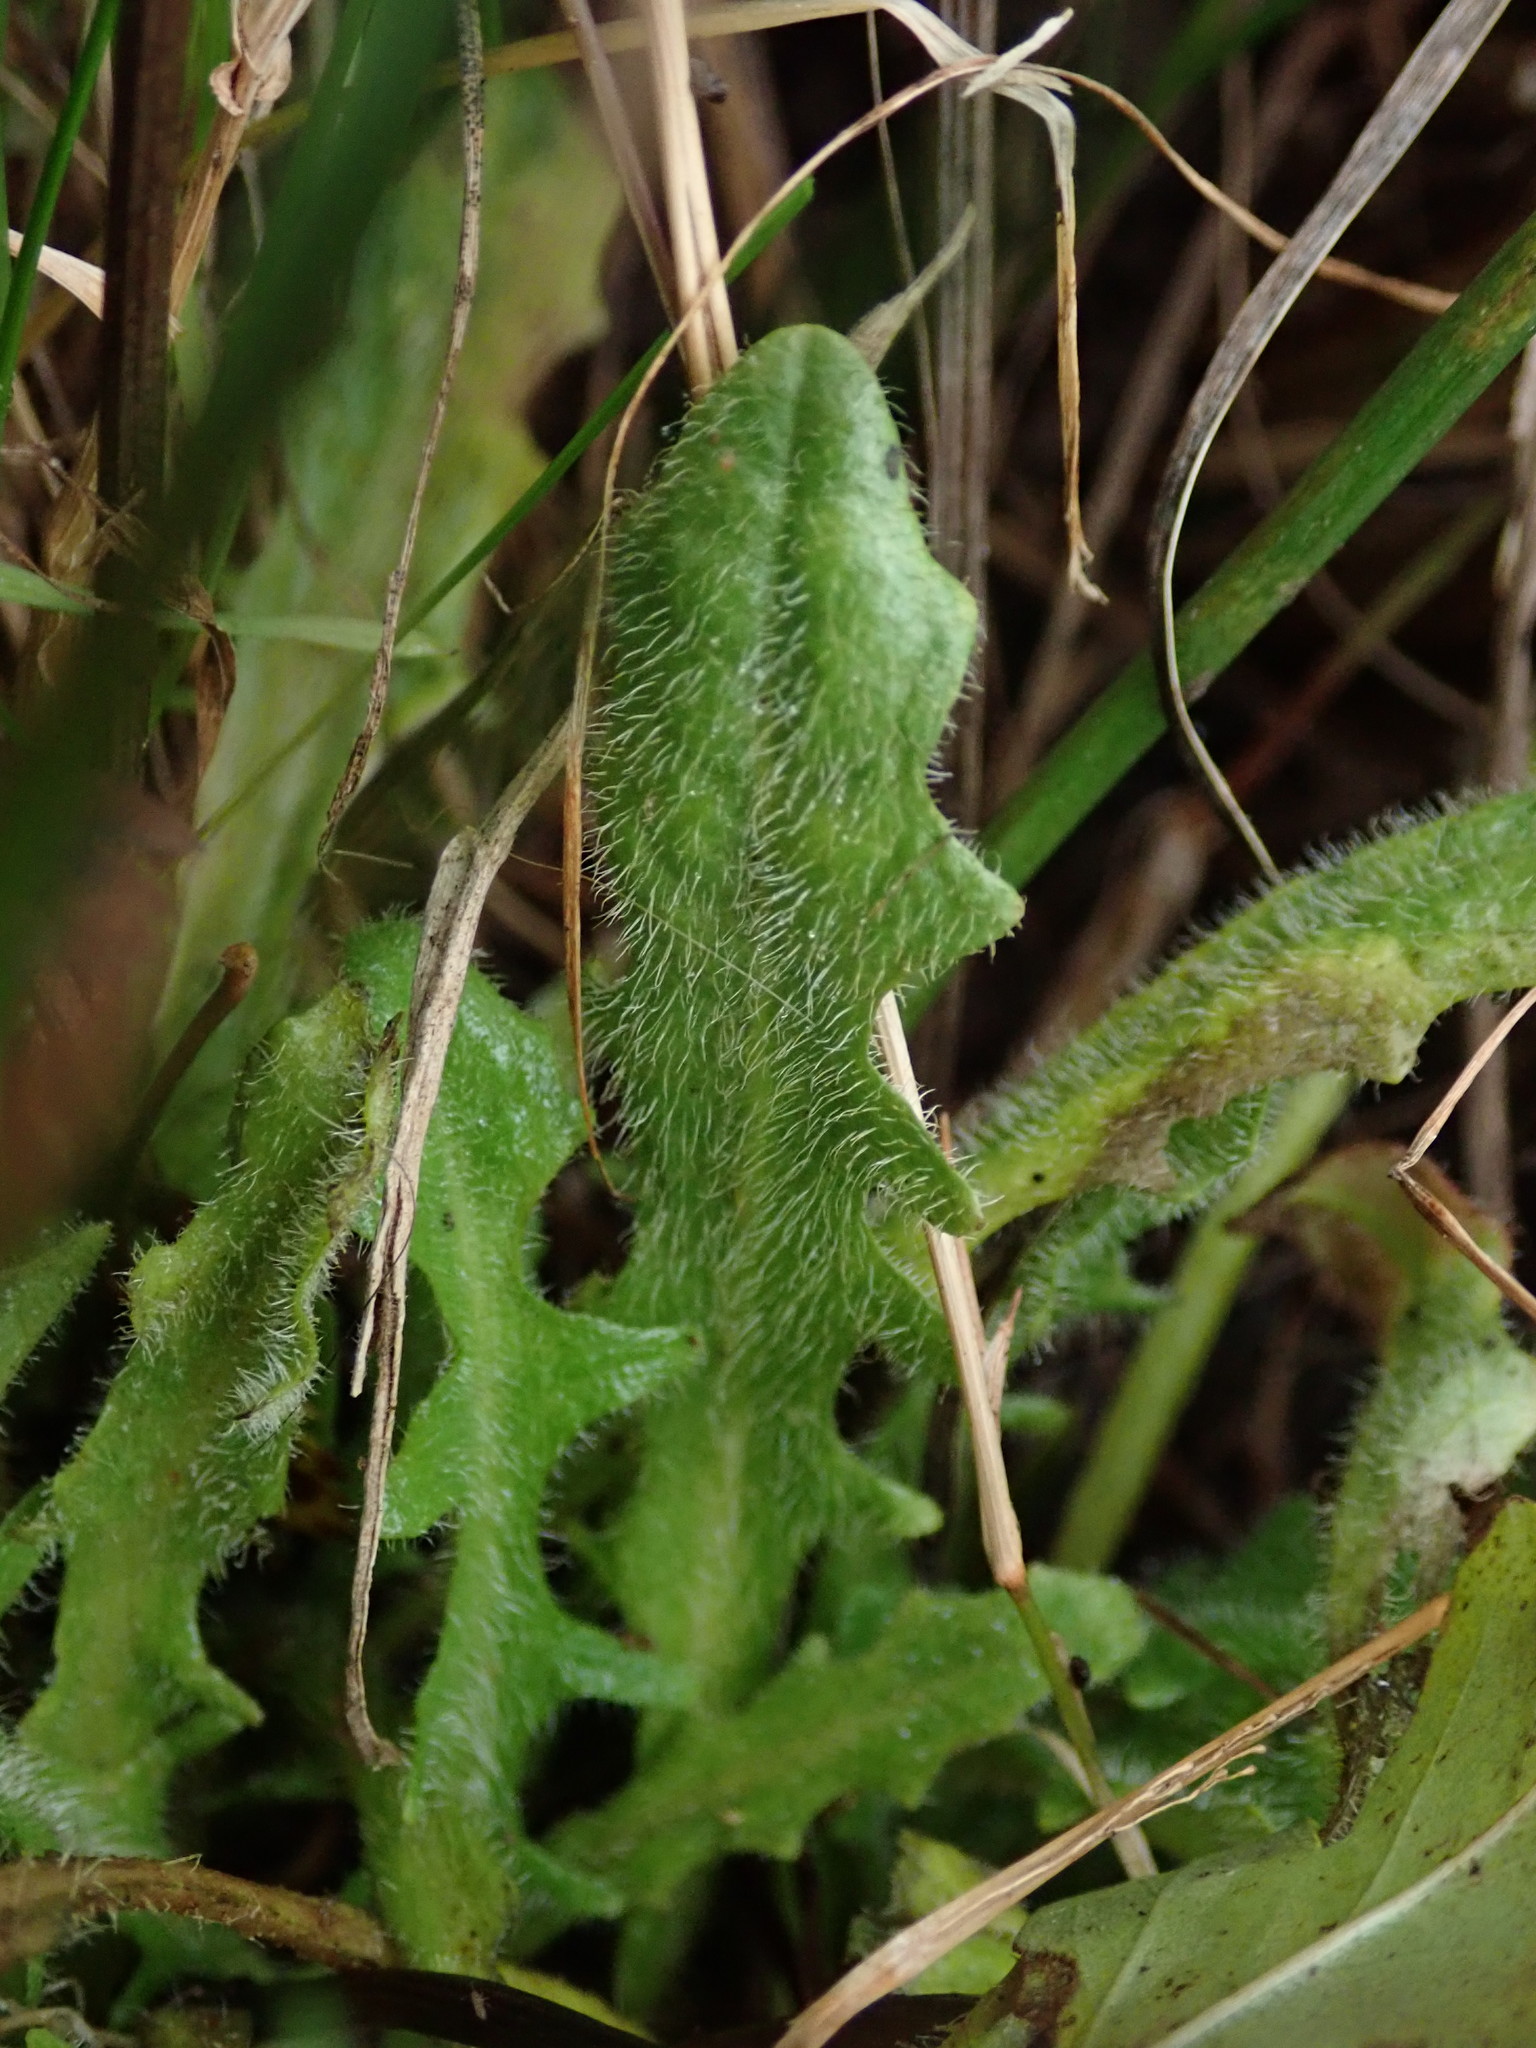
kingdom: Plantae
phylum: Tracheophyta
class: Magnoliopsida
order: Asterales
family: Asteraceae
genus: Hypochaeris
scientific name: Hypochaeris radicata
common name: Flatweed
